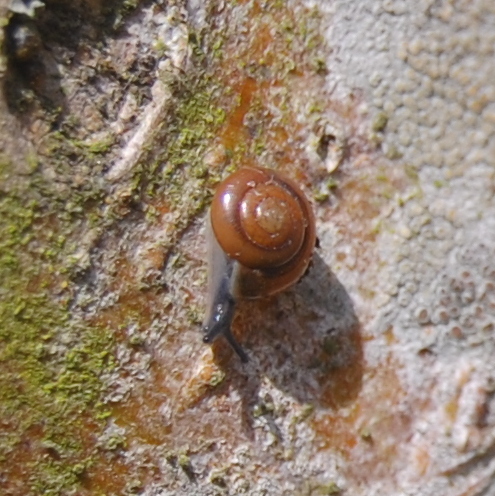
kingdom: Animalia
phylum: Mollusca
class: Gastropoda
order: Stylommatophora
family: Ariophantidae
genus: Macrochlamys
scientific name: Macrochlamys indica
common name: Horntail snail
